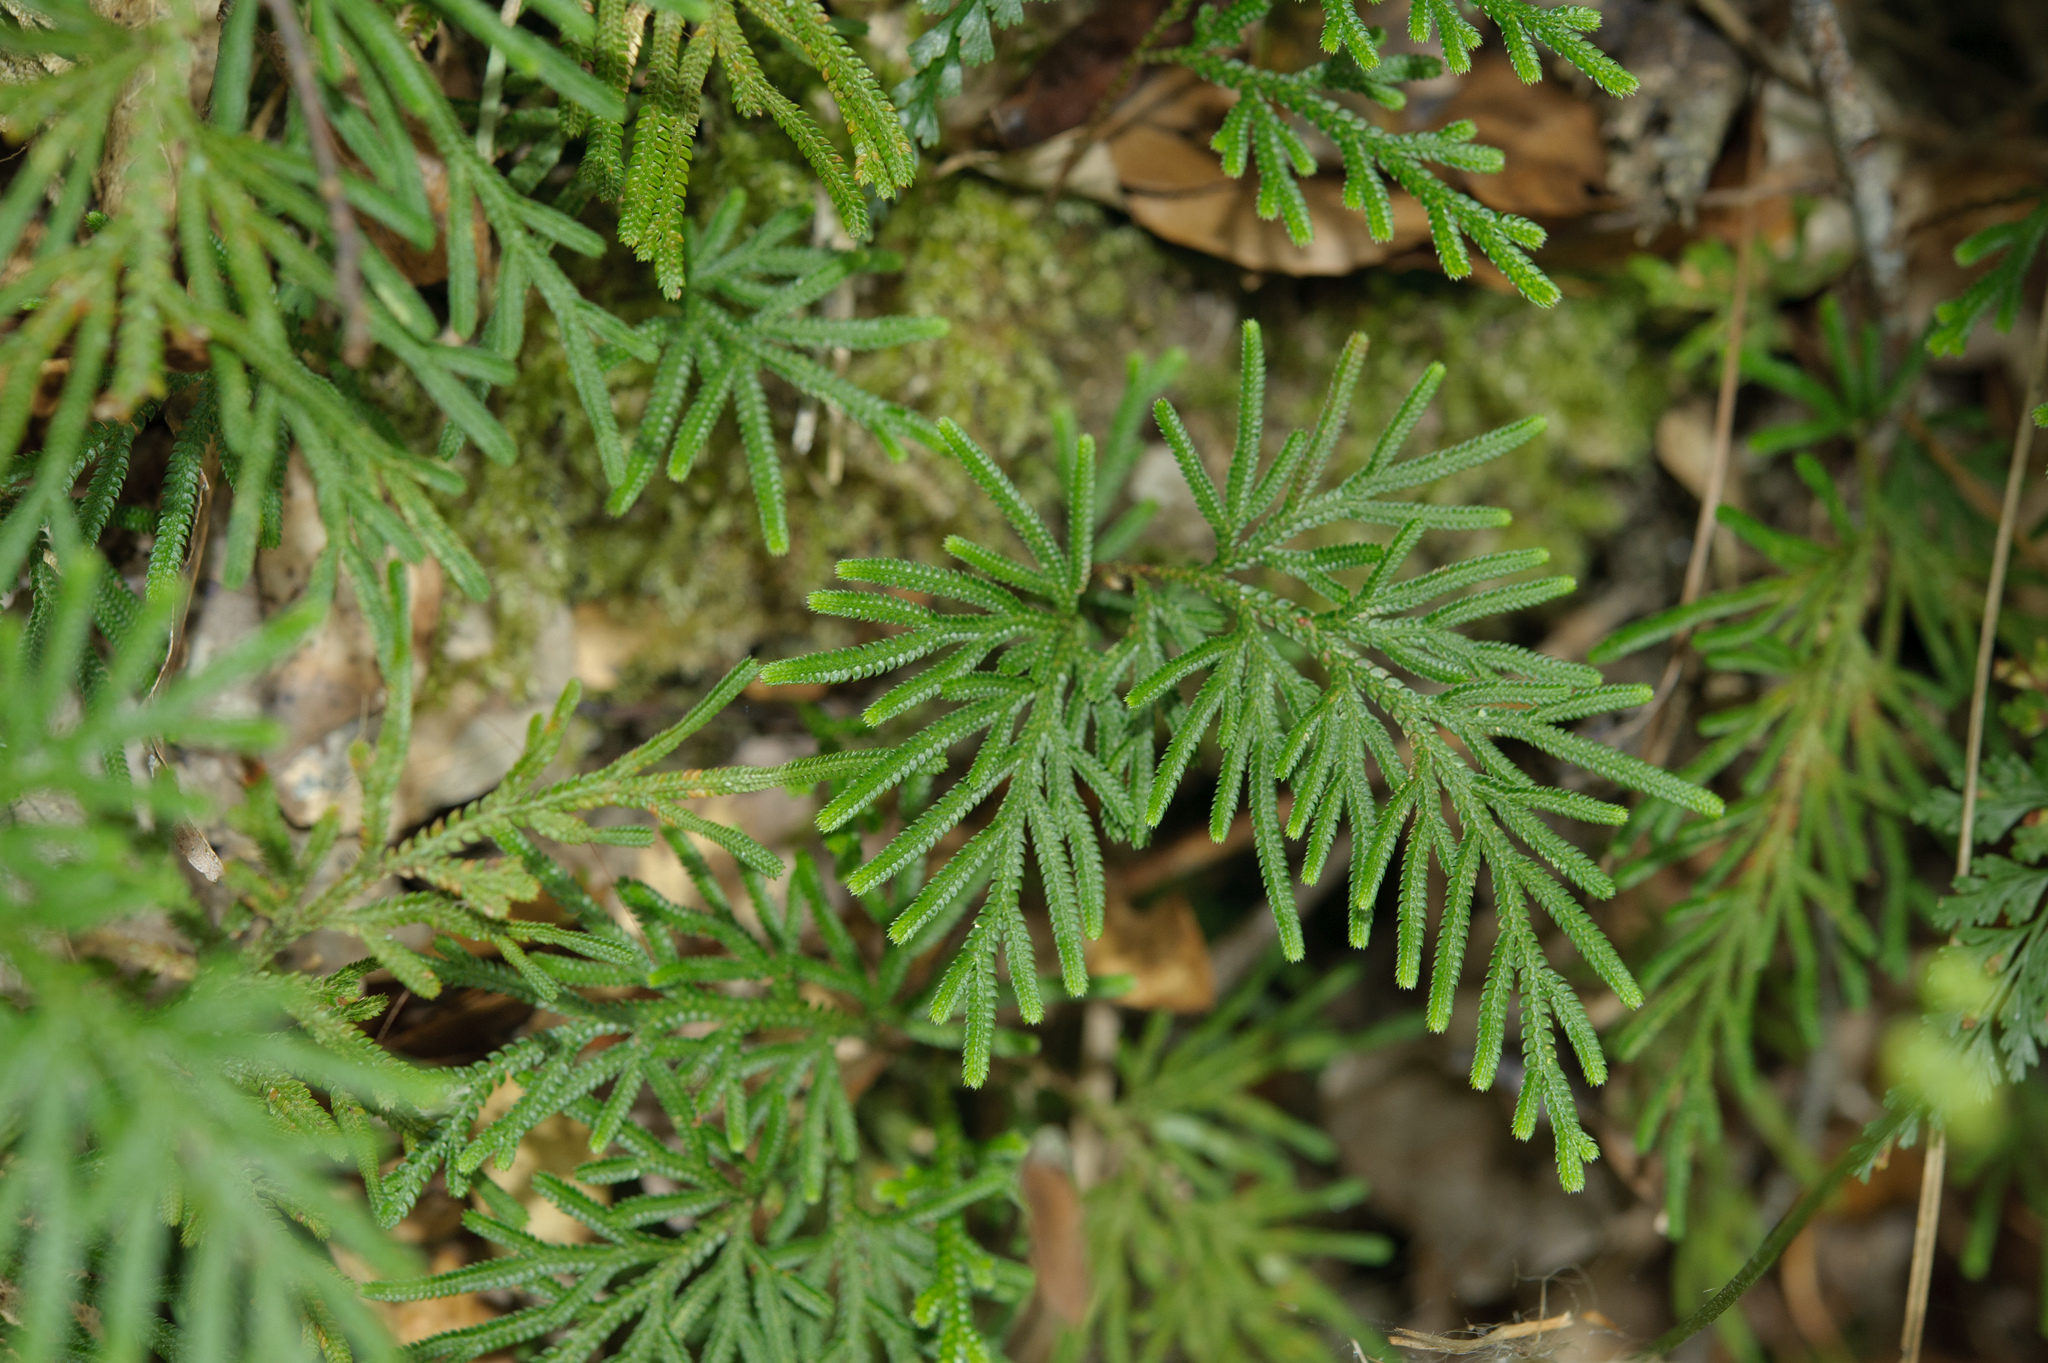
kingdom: Plantae
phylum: Tracheophyta
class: Lycopodiopsida
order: Selaginellales
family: Selaginellaceae
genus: Selaginella
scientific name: Selaginella stauntoniana
